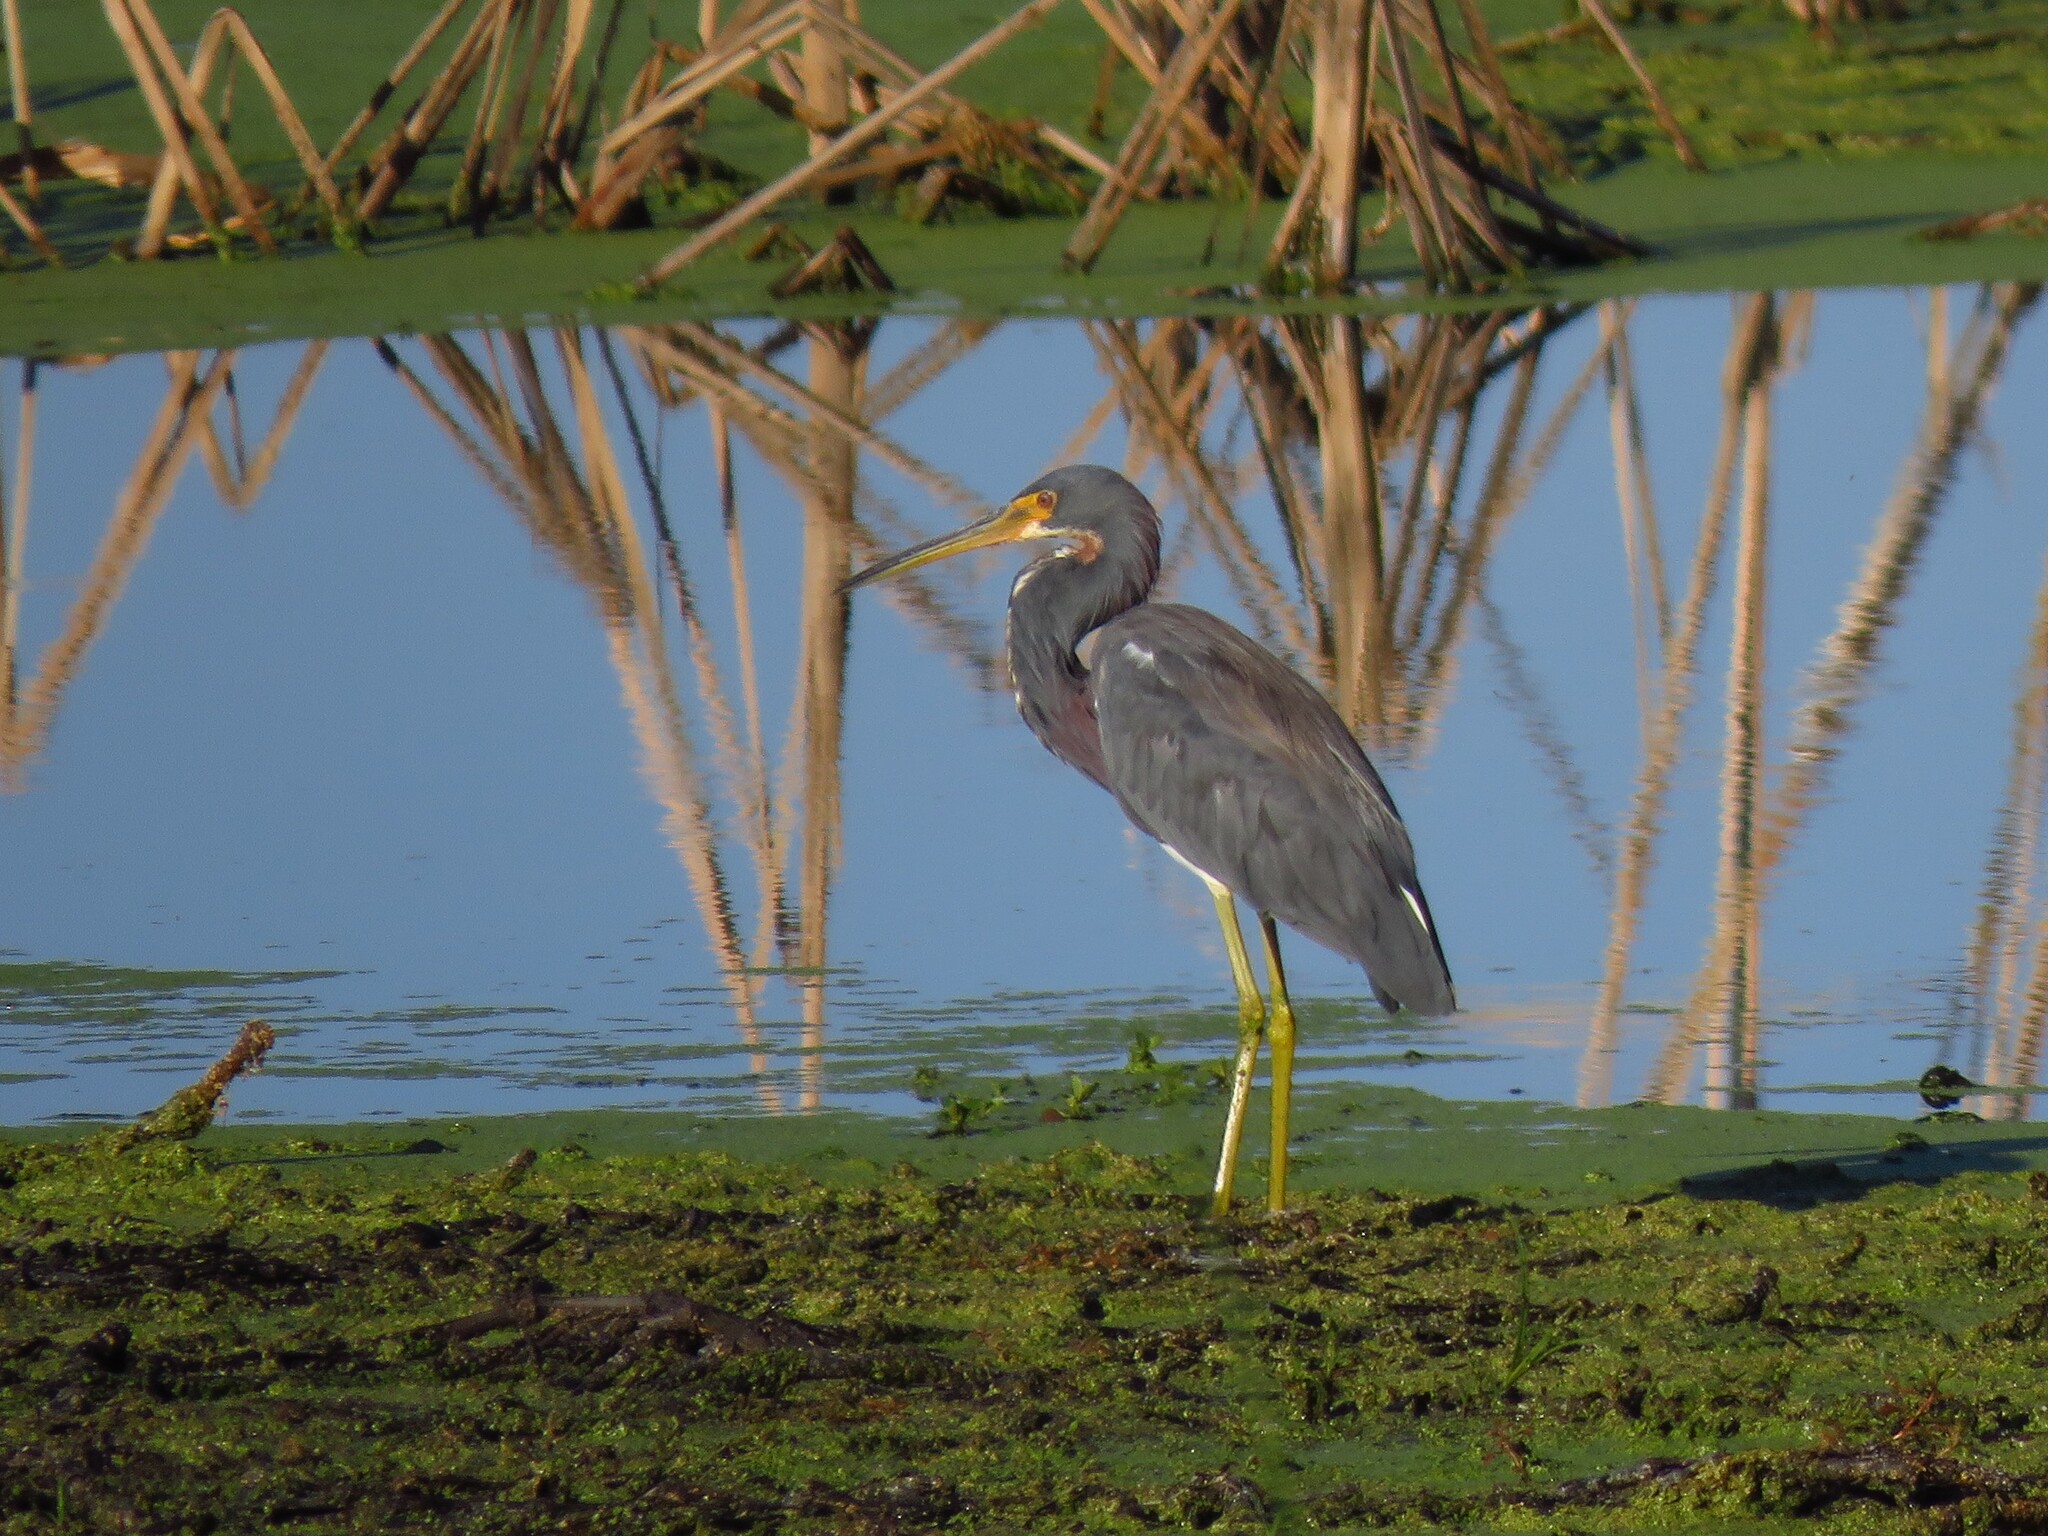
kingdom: Animalia
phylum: Chordata
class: Aves
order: Pelecaniformes
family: Ardeidae
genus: Egretta
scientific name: Egretta tricolor
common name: Tricolored heron
